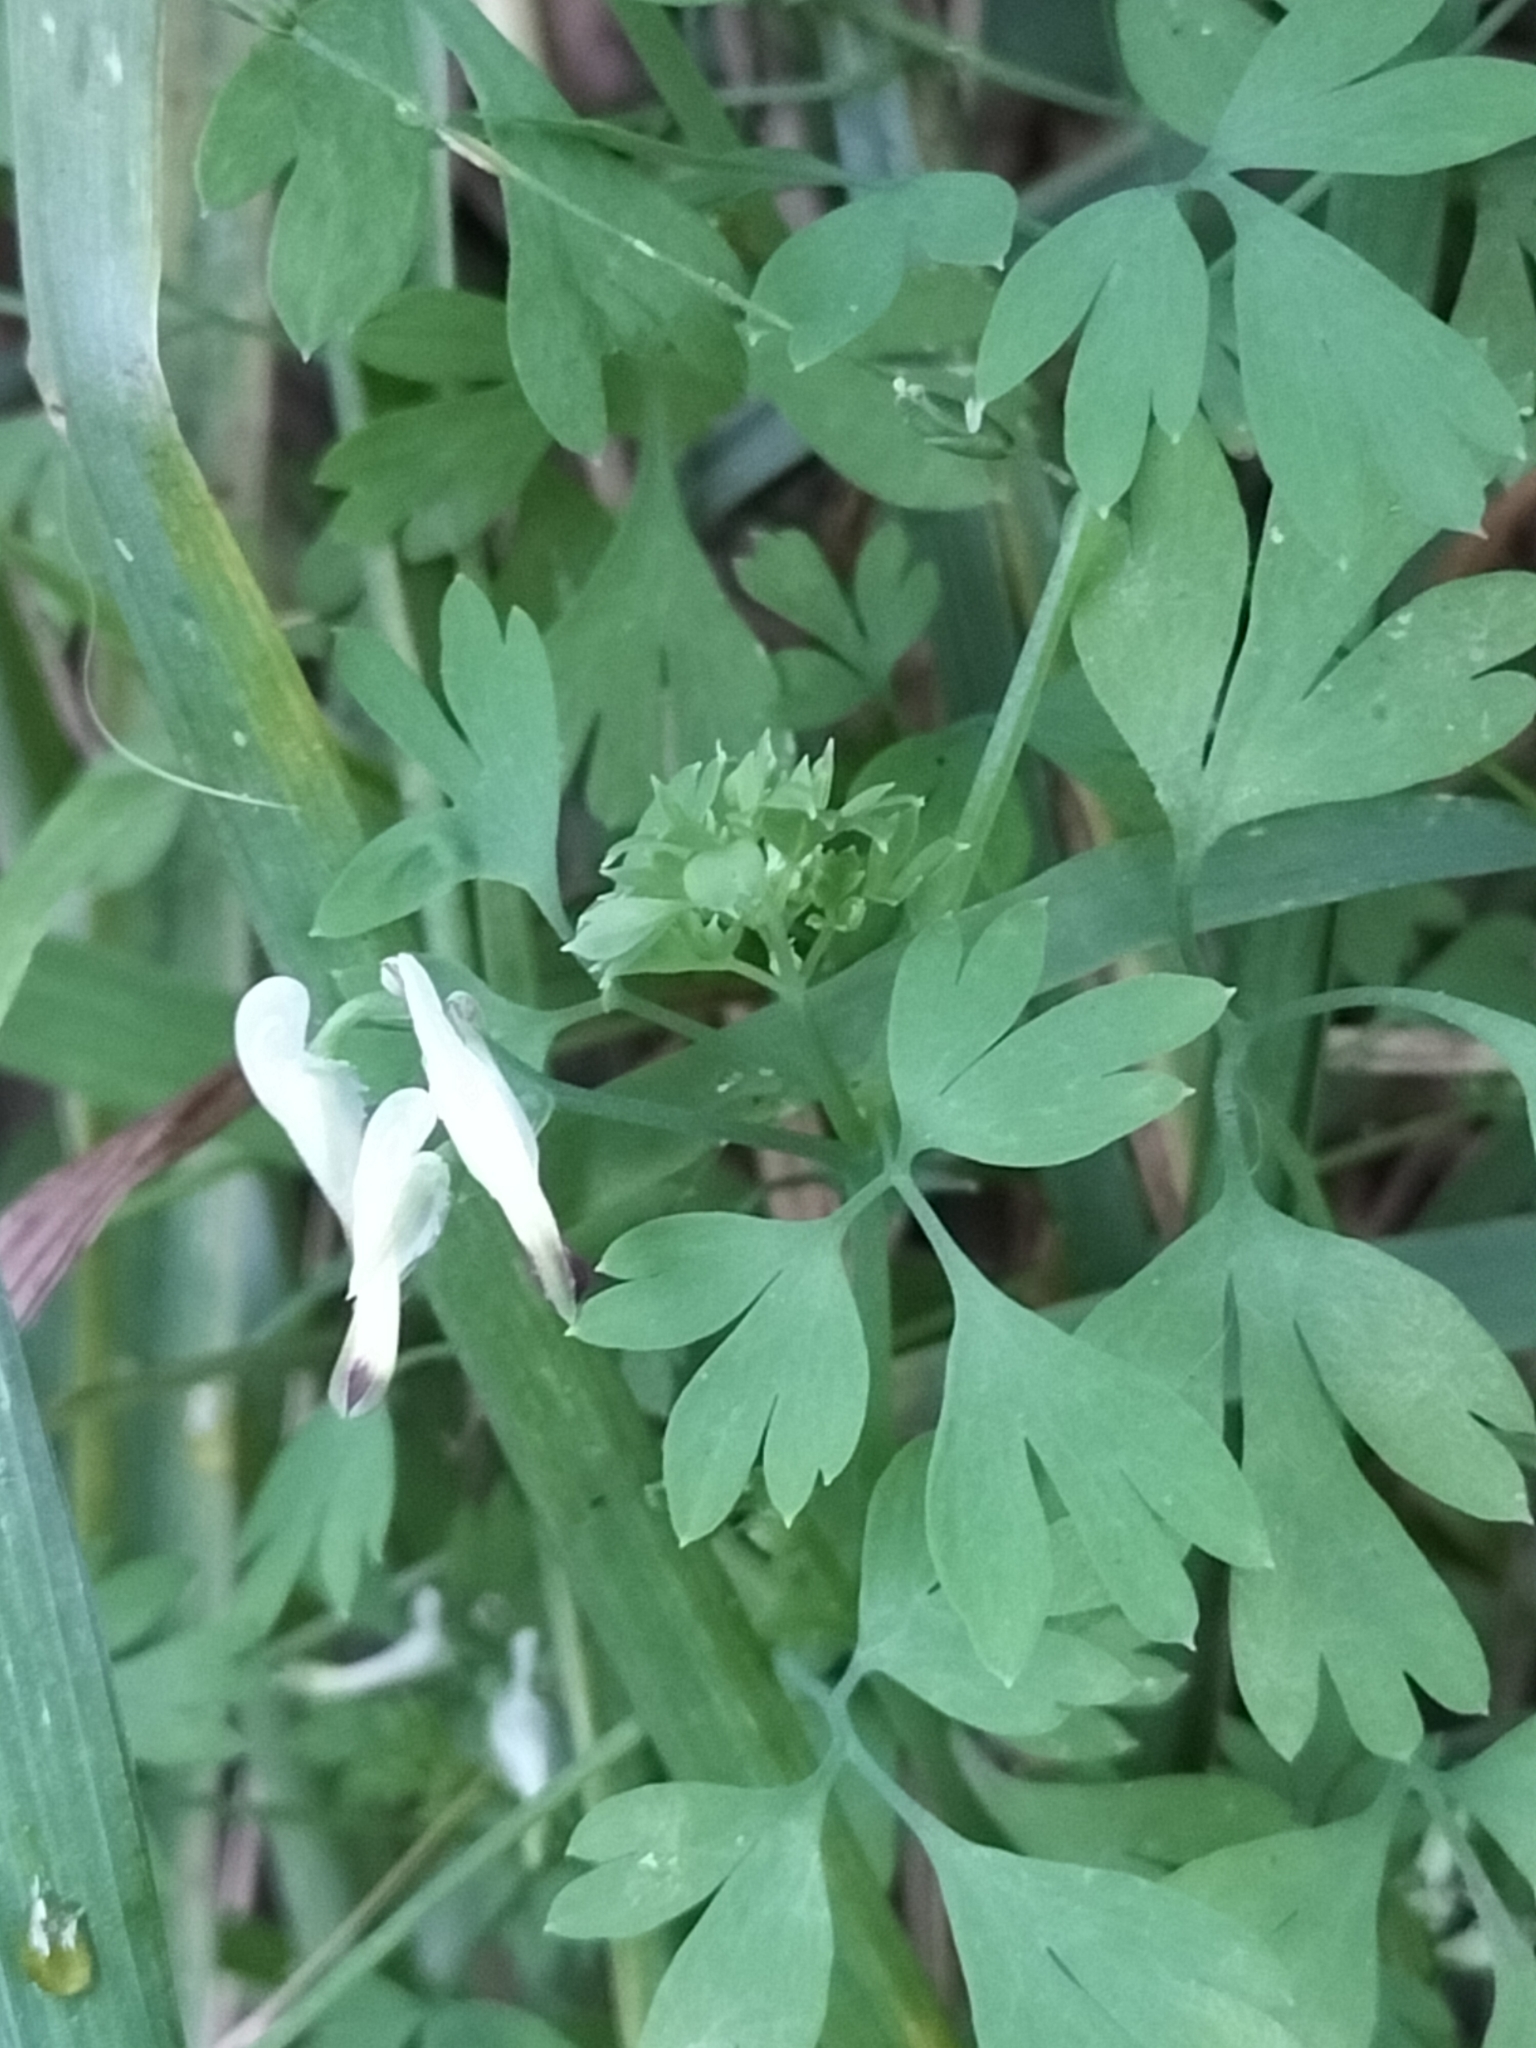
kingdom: Plantae
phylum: Tracheophyta
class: Magnoliopsida
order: Ranunculales
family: Papaveraceae
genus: Fumaria
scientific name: Fumaria capreolata
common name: White ramping-fumitory
